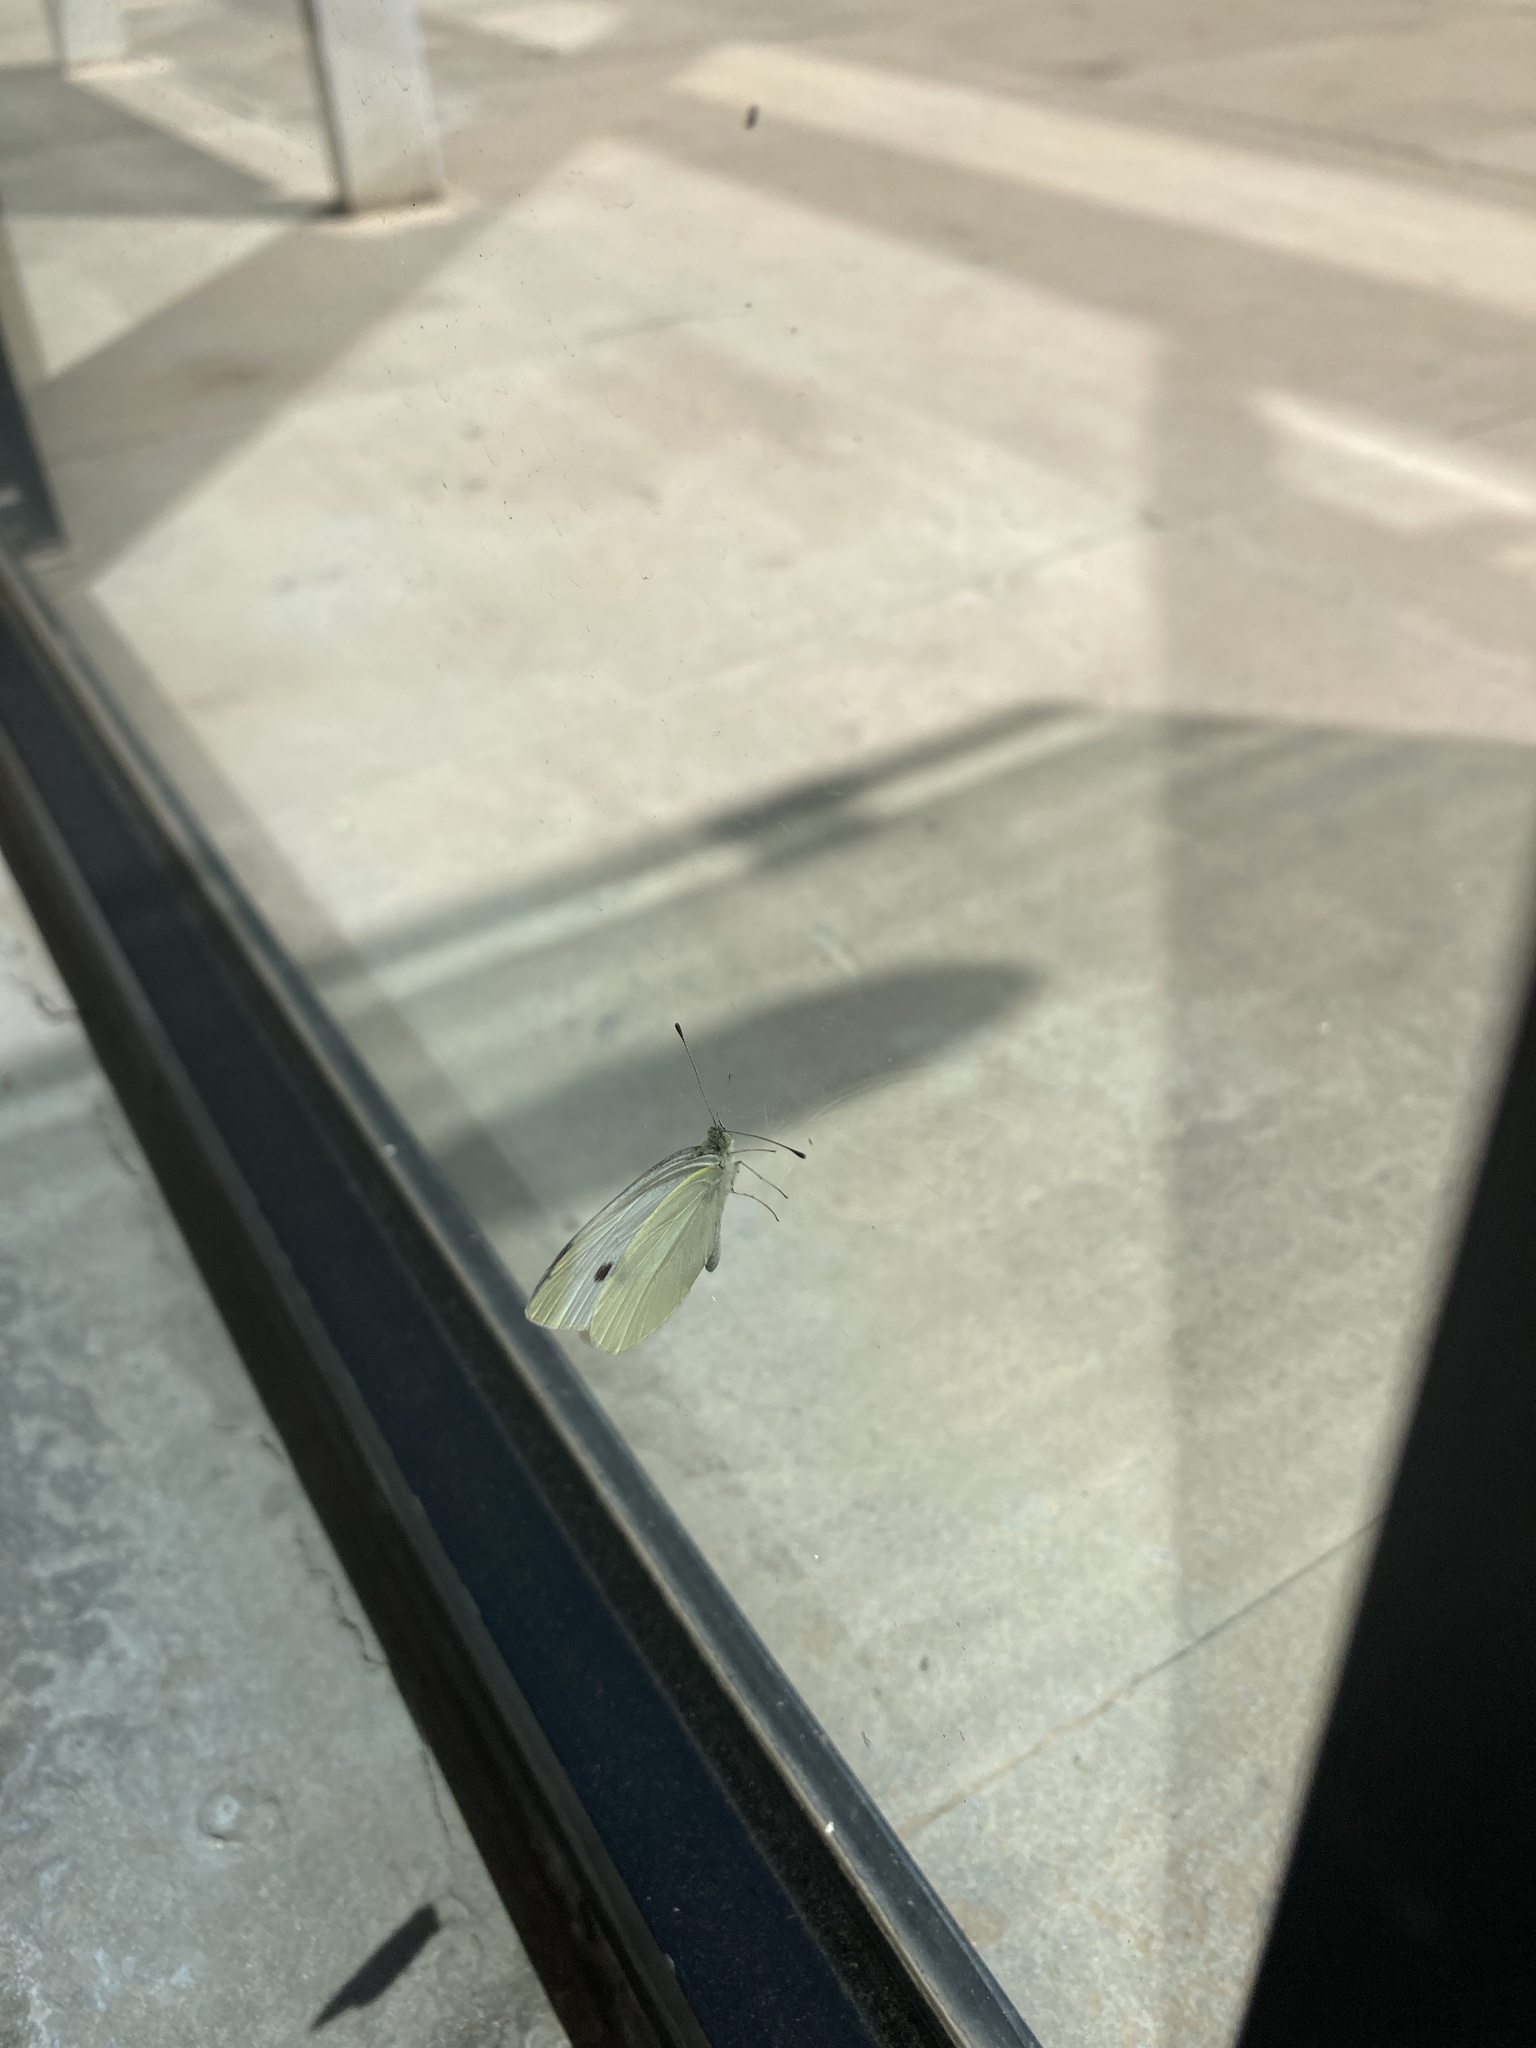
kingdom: Animalia
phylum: Arthropoda
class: Insecta
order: Lepidoptera
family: Pieridae
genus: Pieris
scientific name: Pieris rapae
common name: Small white
